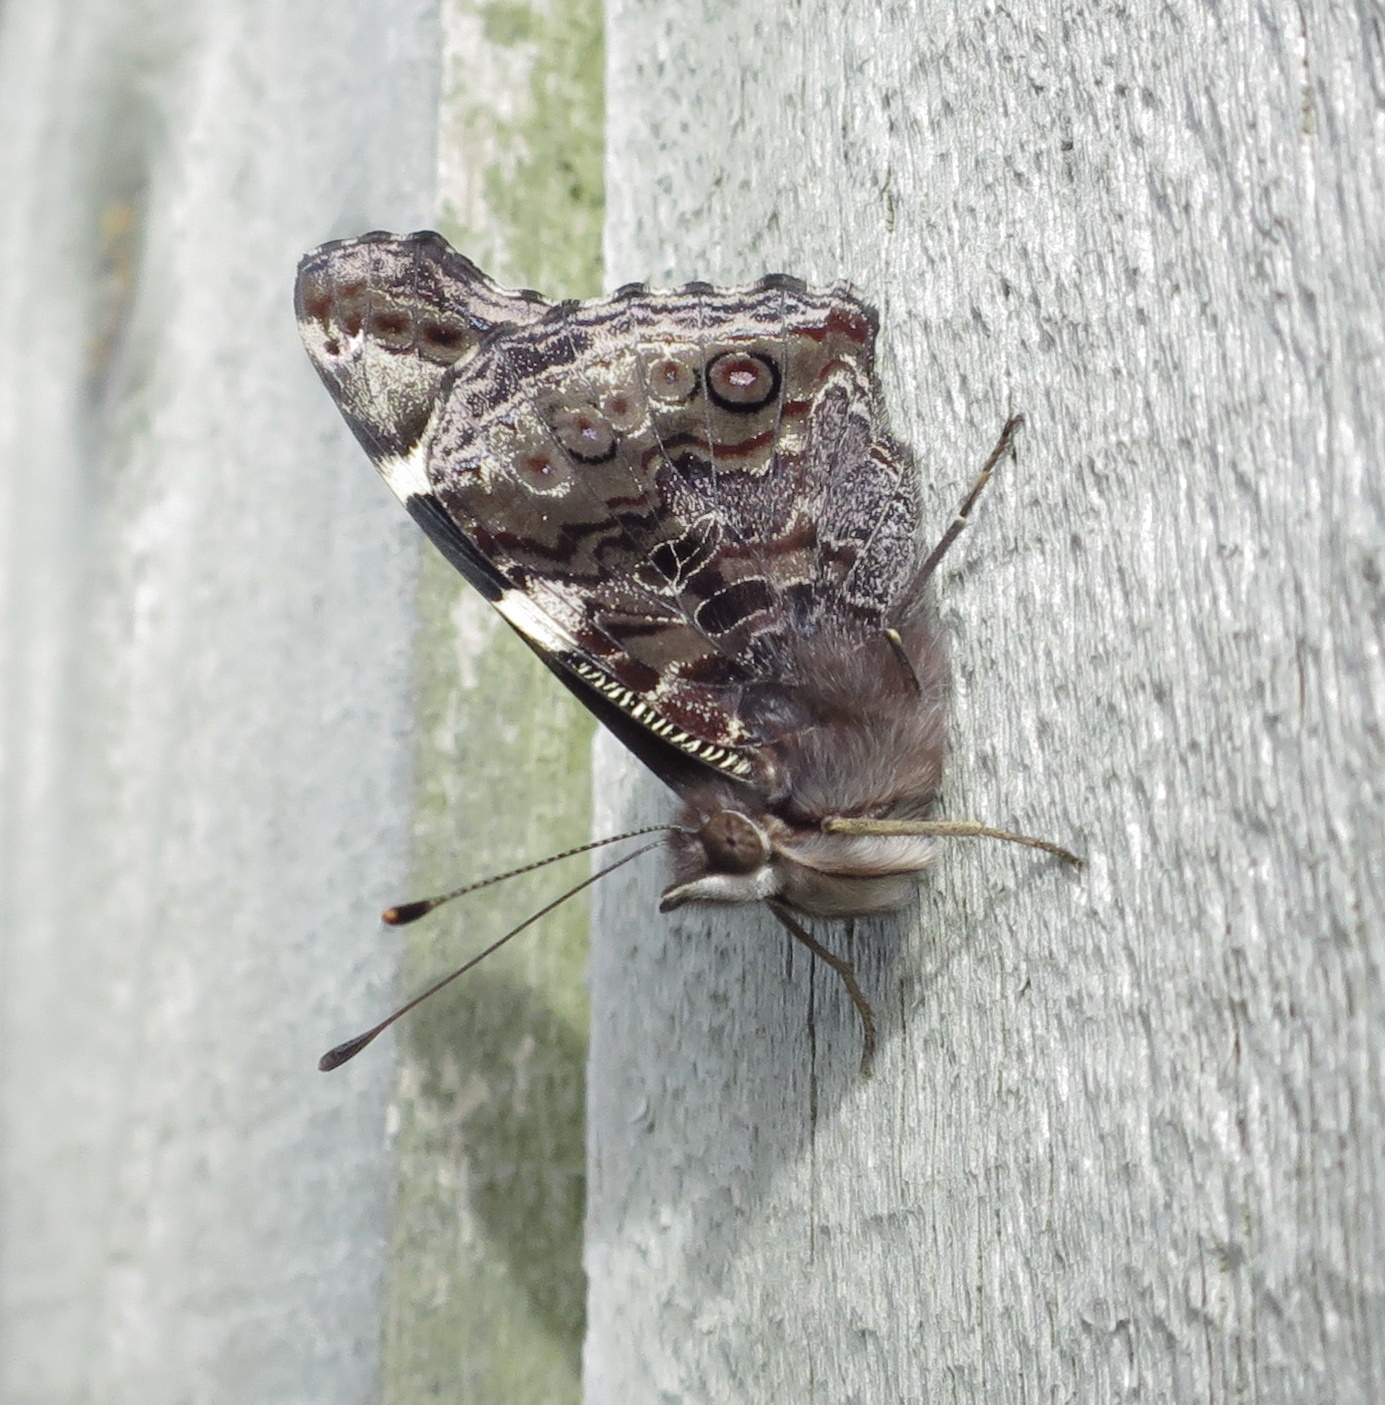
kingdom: Animalia
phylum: Arthropoda
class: Insecta
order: Lepidoptera
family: Nymphalidae
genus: Vanessa
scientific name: Vanessa itea
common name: Yellow admiral
